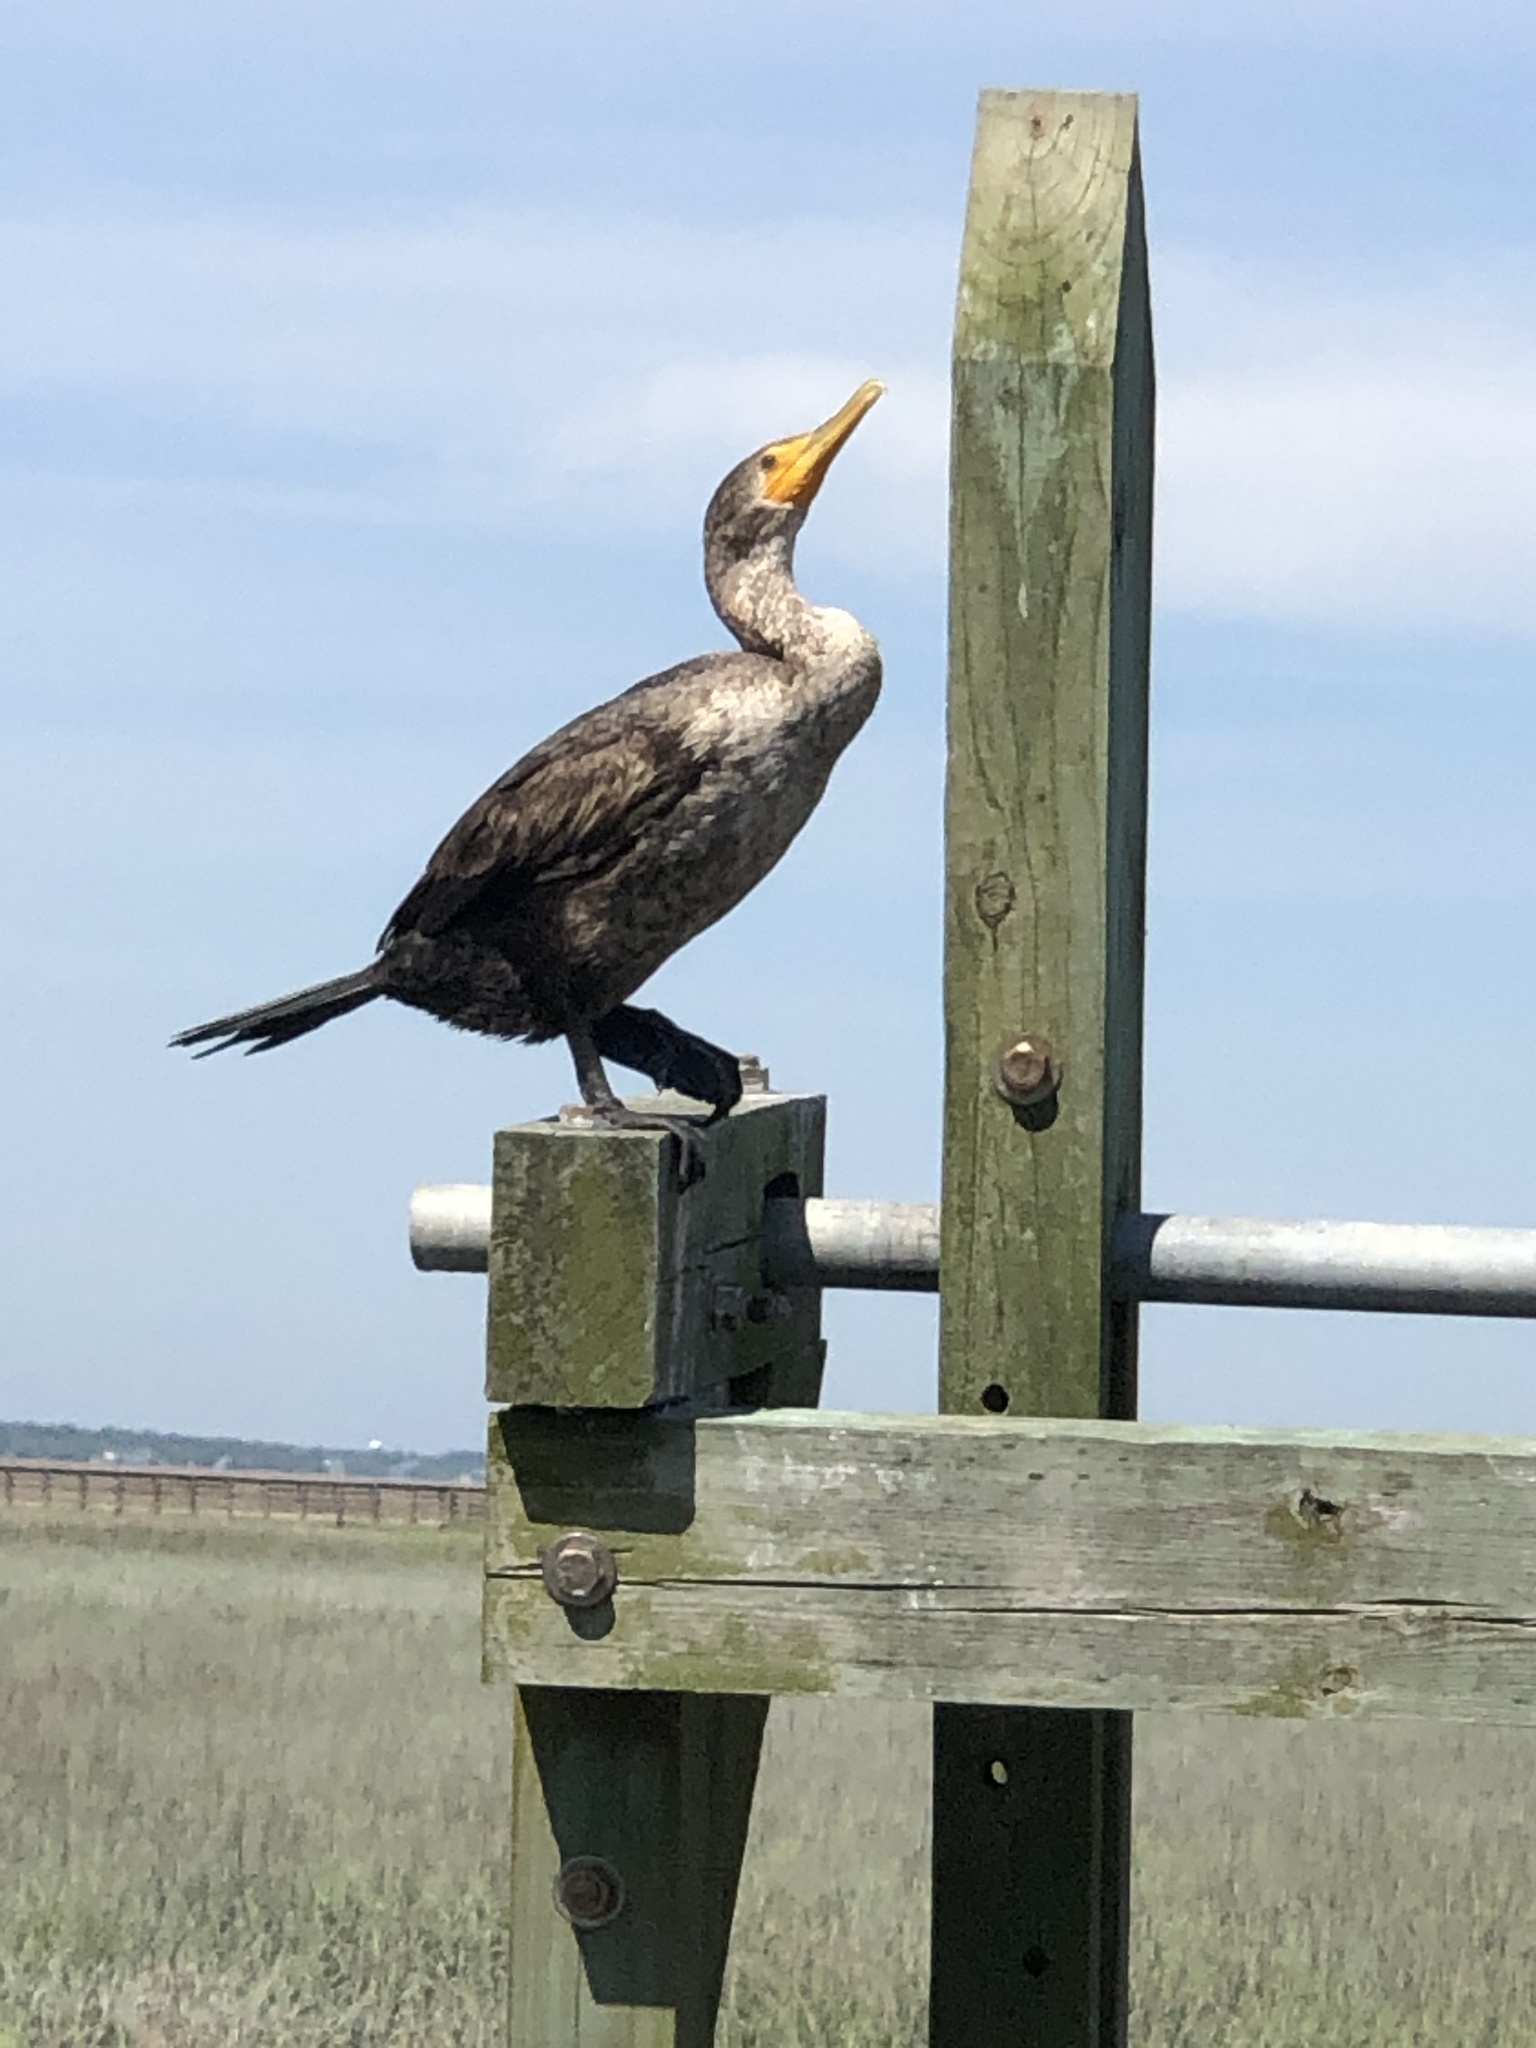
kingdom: Animalia
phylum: Chordata
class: Aves
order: Suliformes
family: Phalacrocoracidae
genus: Phalacrocorax
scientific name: Phalacrocorax auritus
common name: Double-crested cormorant
